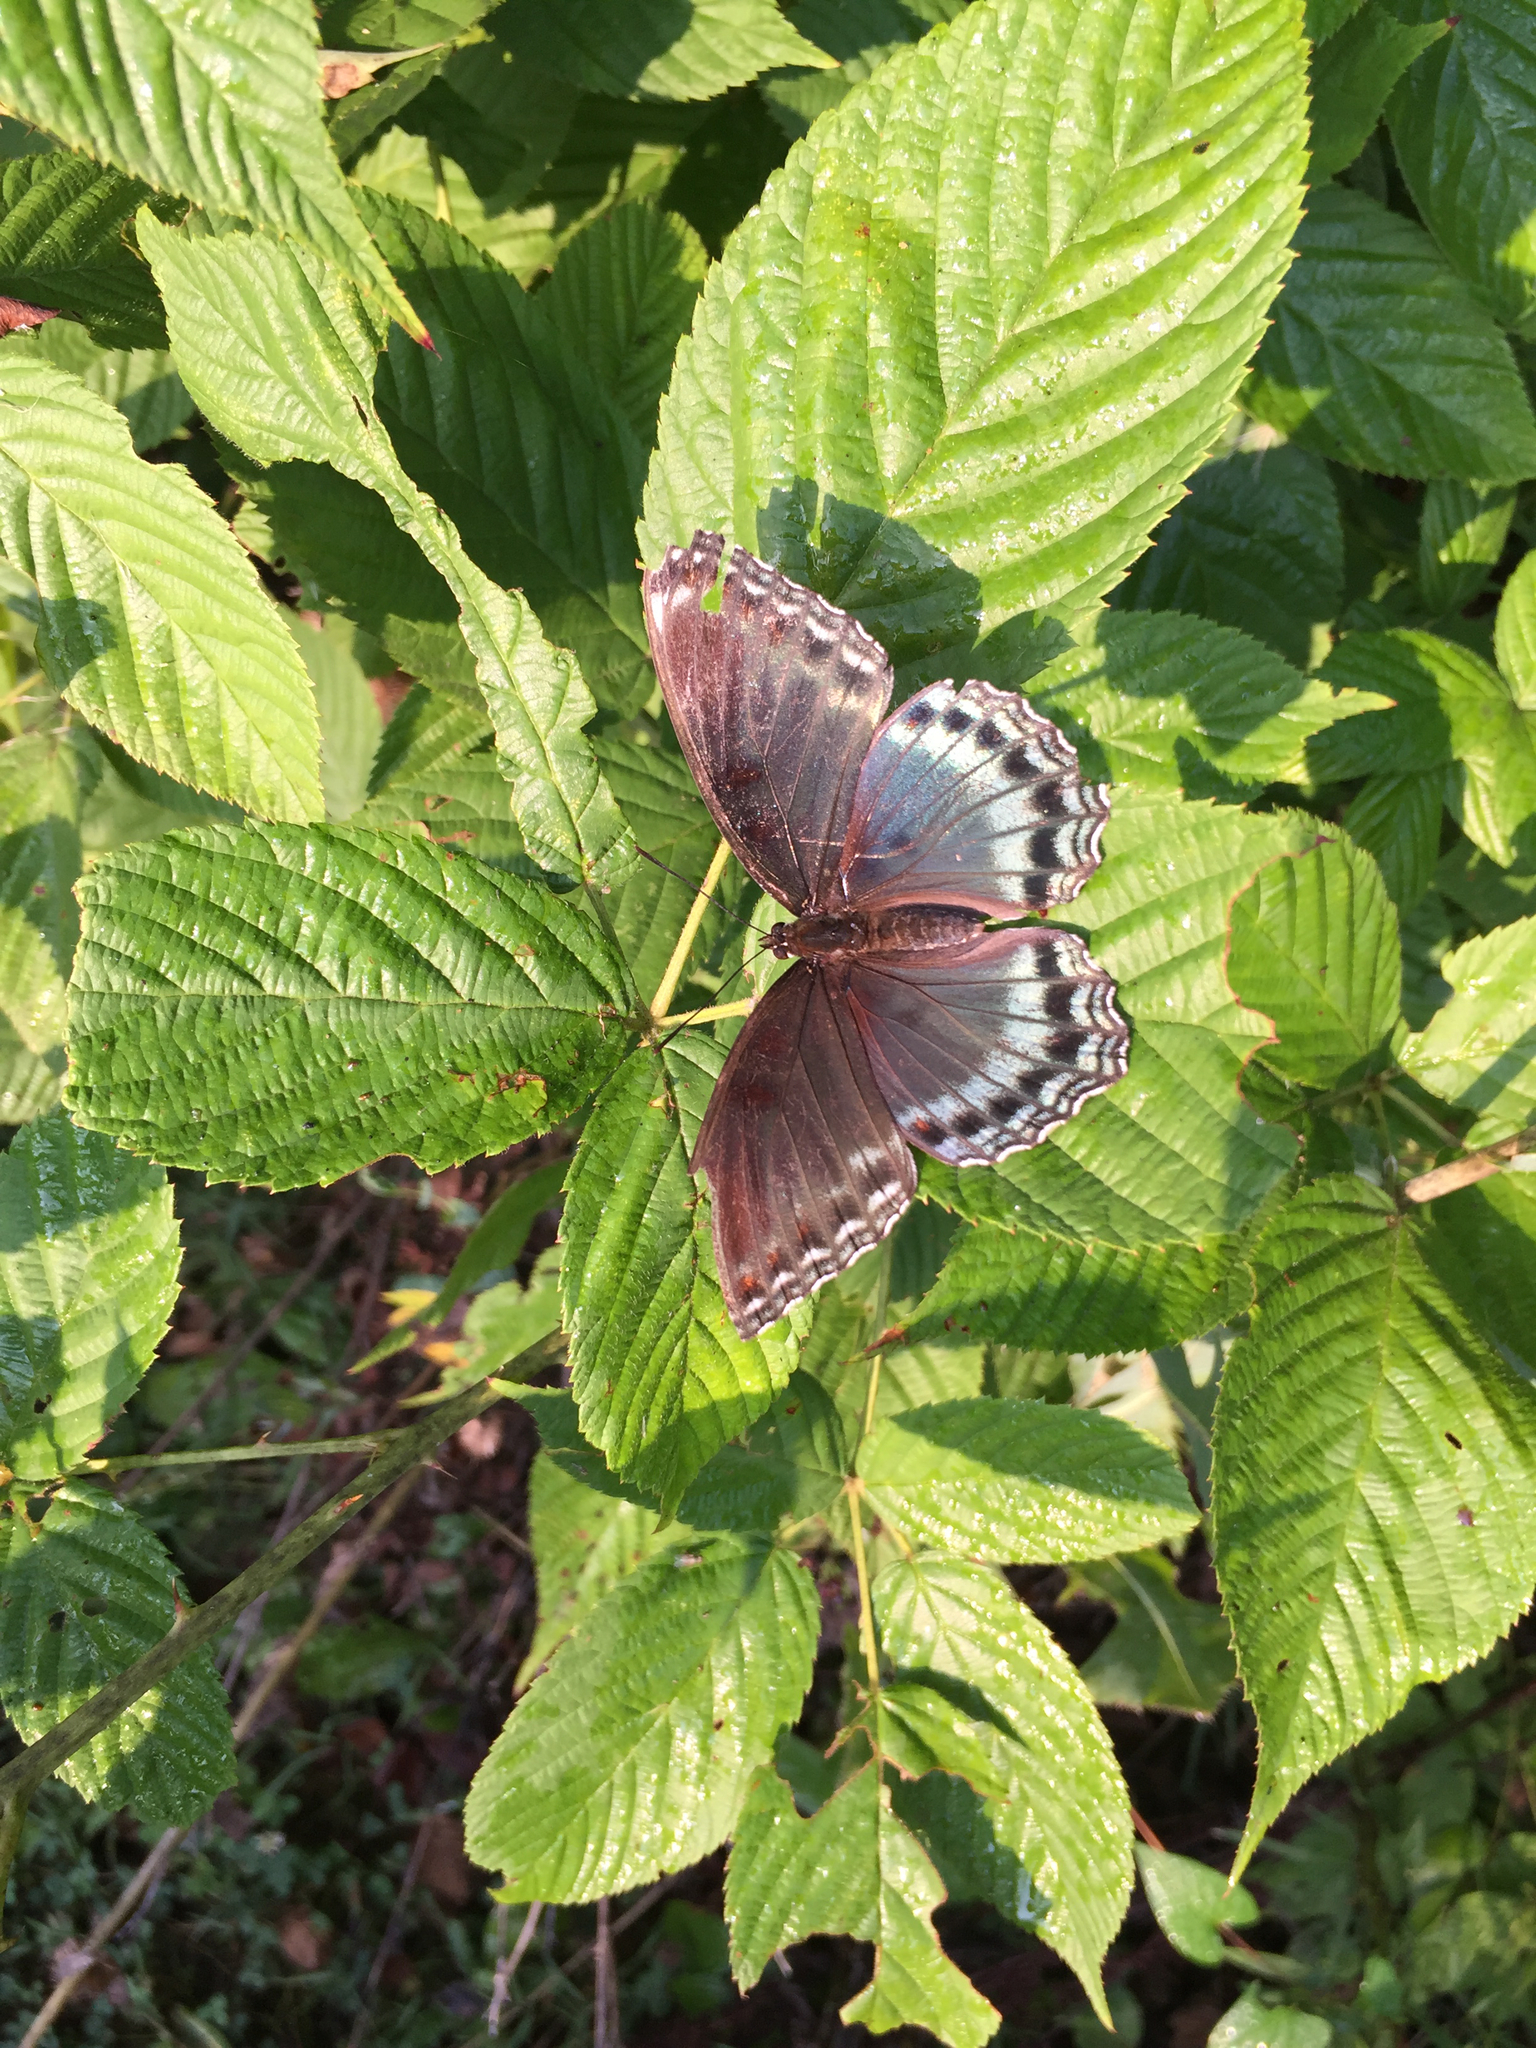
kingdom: Animalia
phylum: Arthropoda
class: Insecta
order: Lepidoptera
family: Nymphalidae
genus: Limenitis
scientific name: Limenitis astyanax
